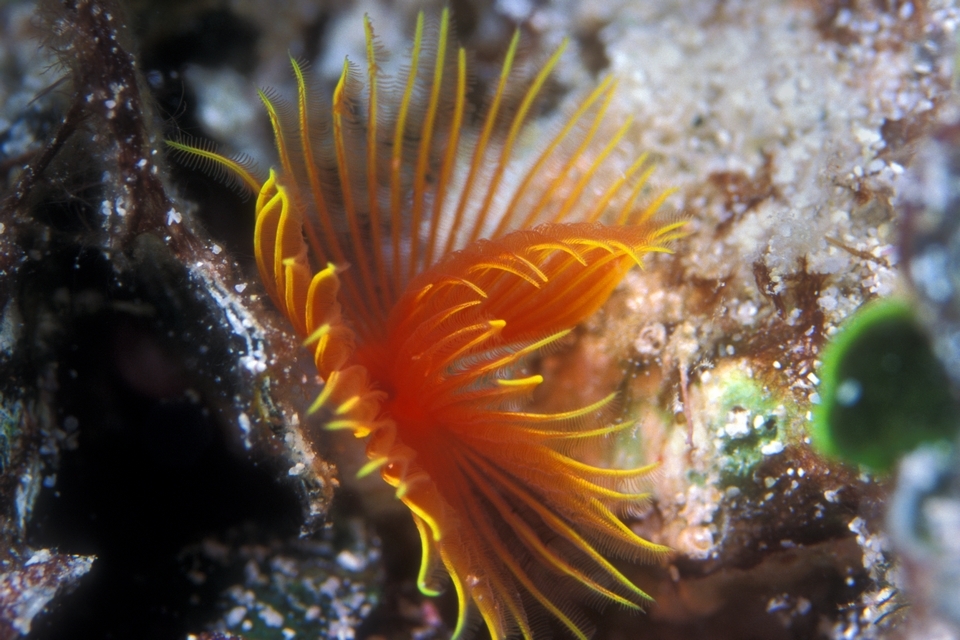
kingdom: Animalia
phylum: Annelida
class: Polychaeta
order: Sabellida
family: Serpulidae
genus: Pomatostegus
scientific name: Pomatostegus stellatus
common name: Star tubeworm
